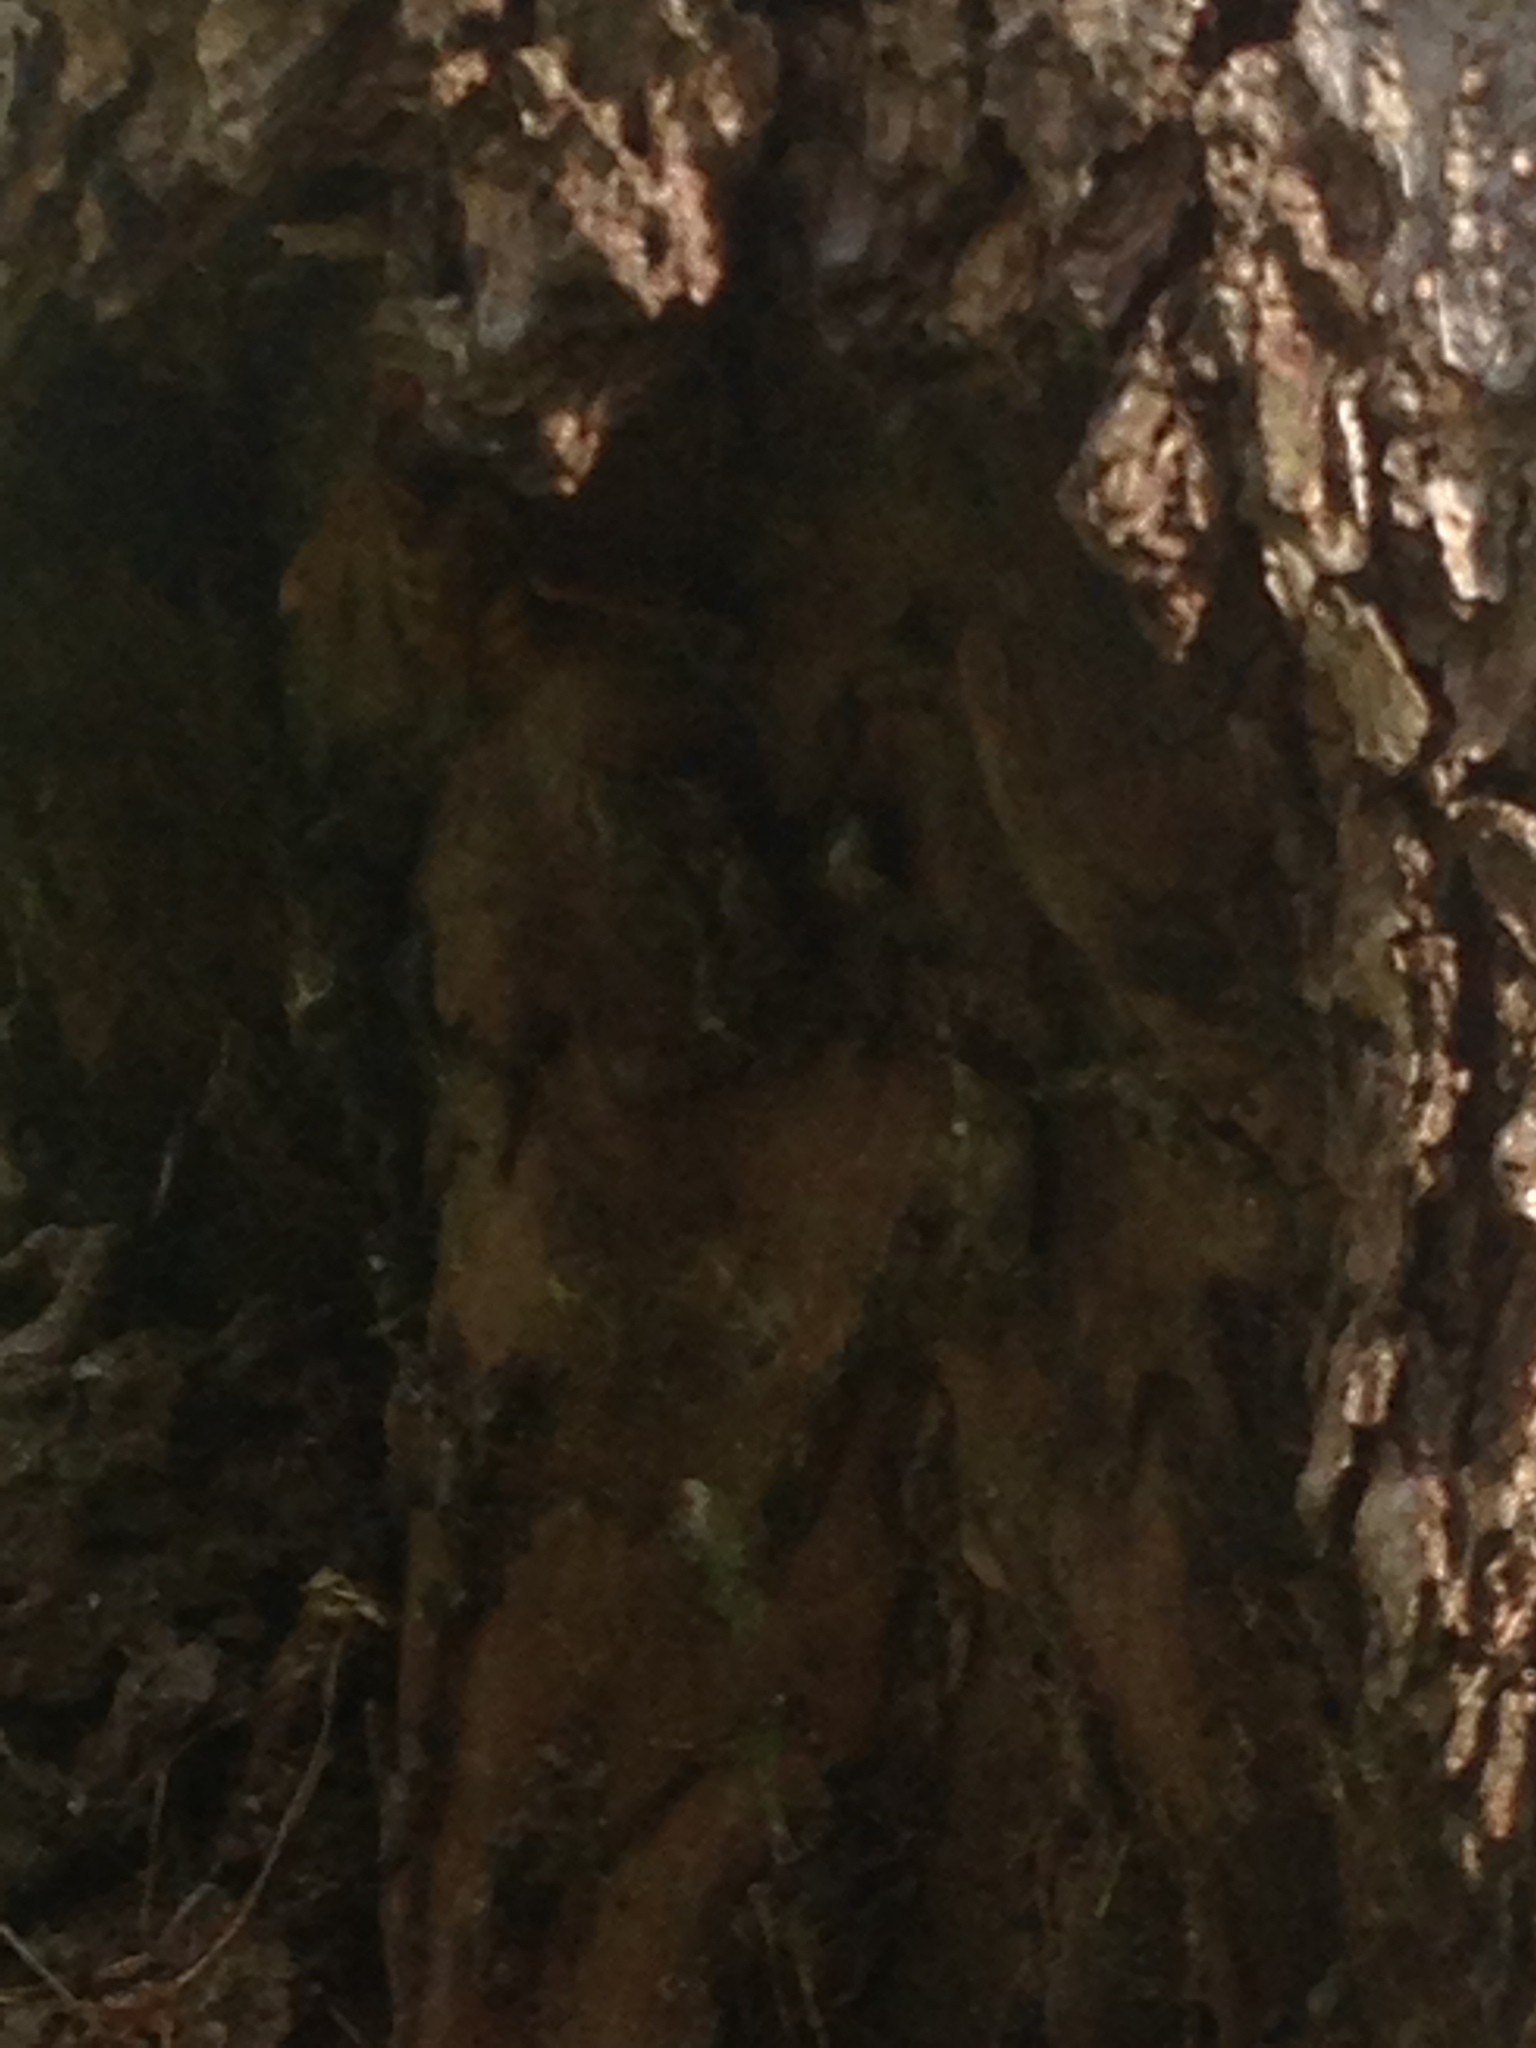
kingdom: Animalia
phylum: Arthropoda
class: Insecta
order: Hymenoptera
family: Vespidae
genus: Vespa
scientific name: Vespa crabro
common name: Hornet
